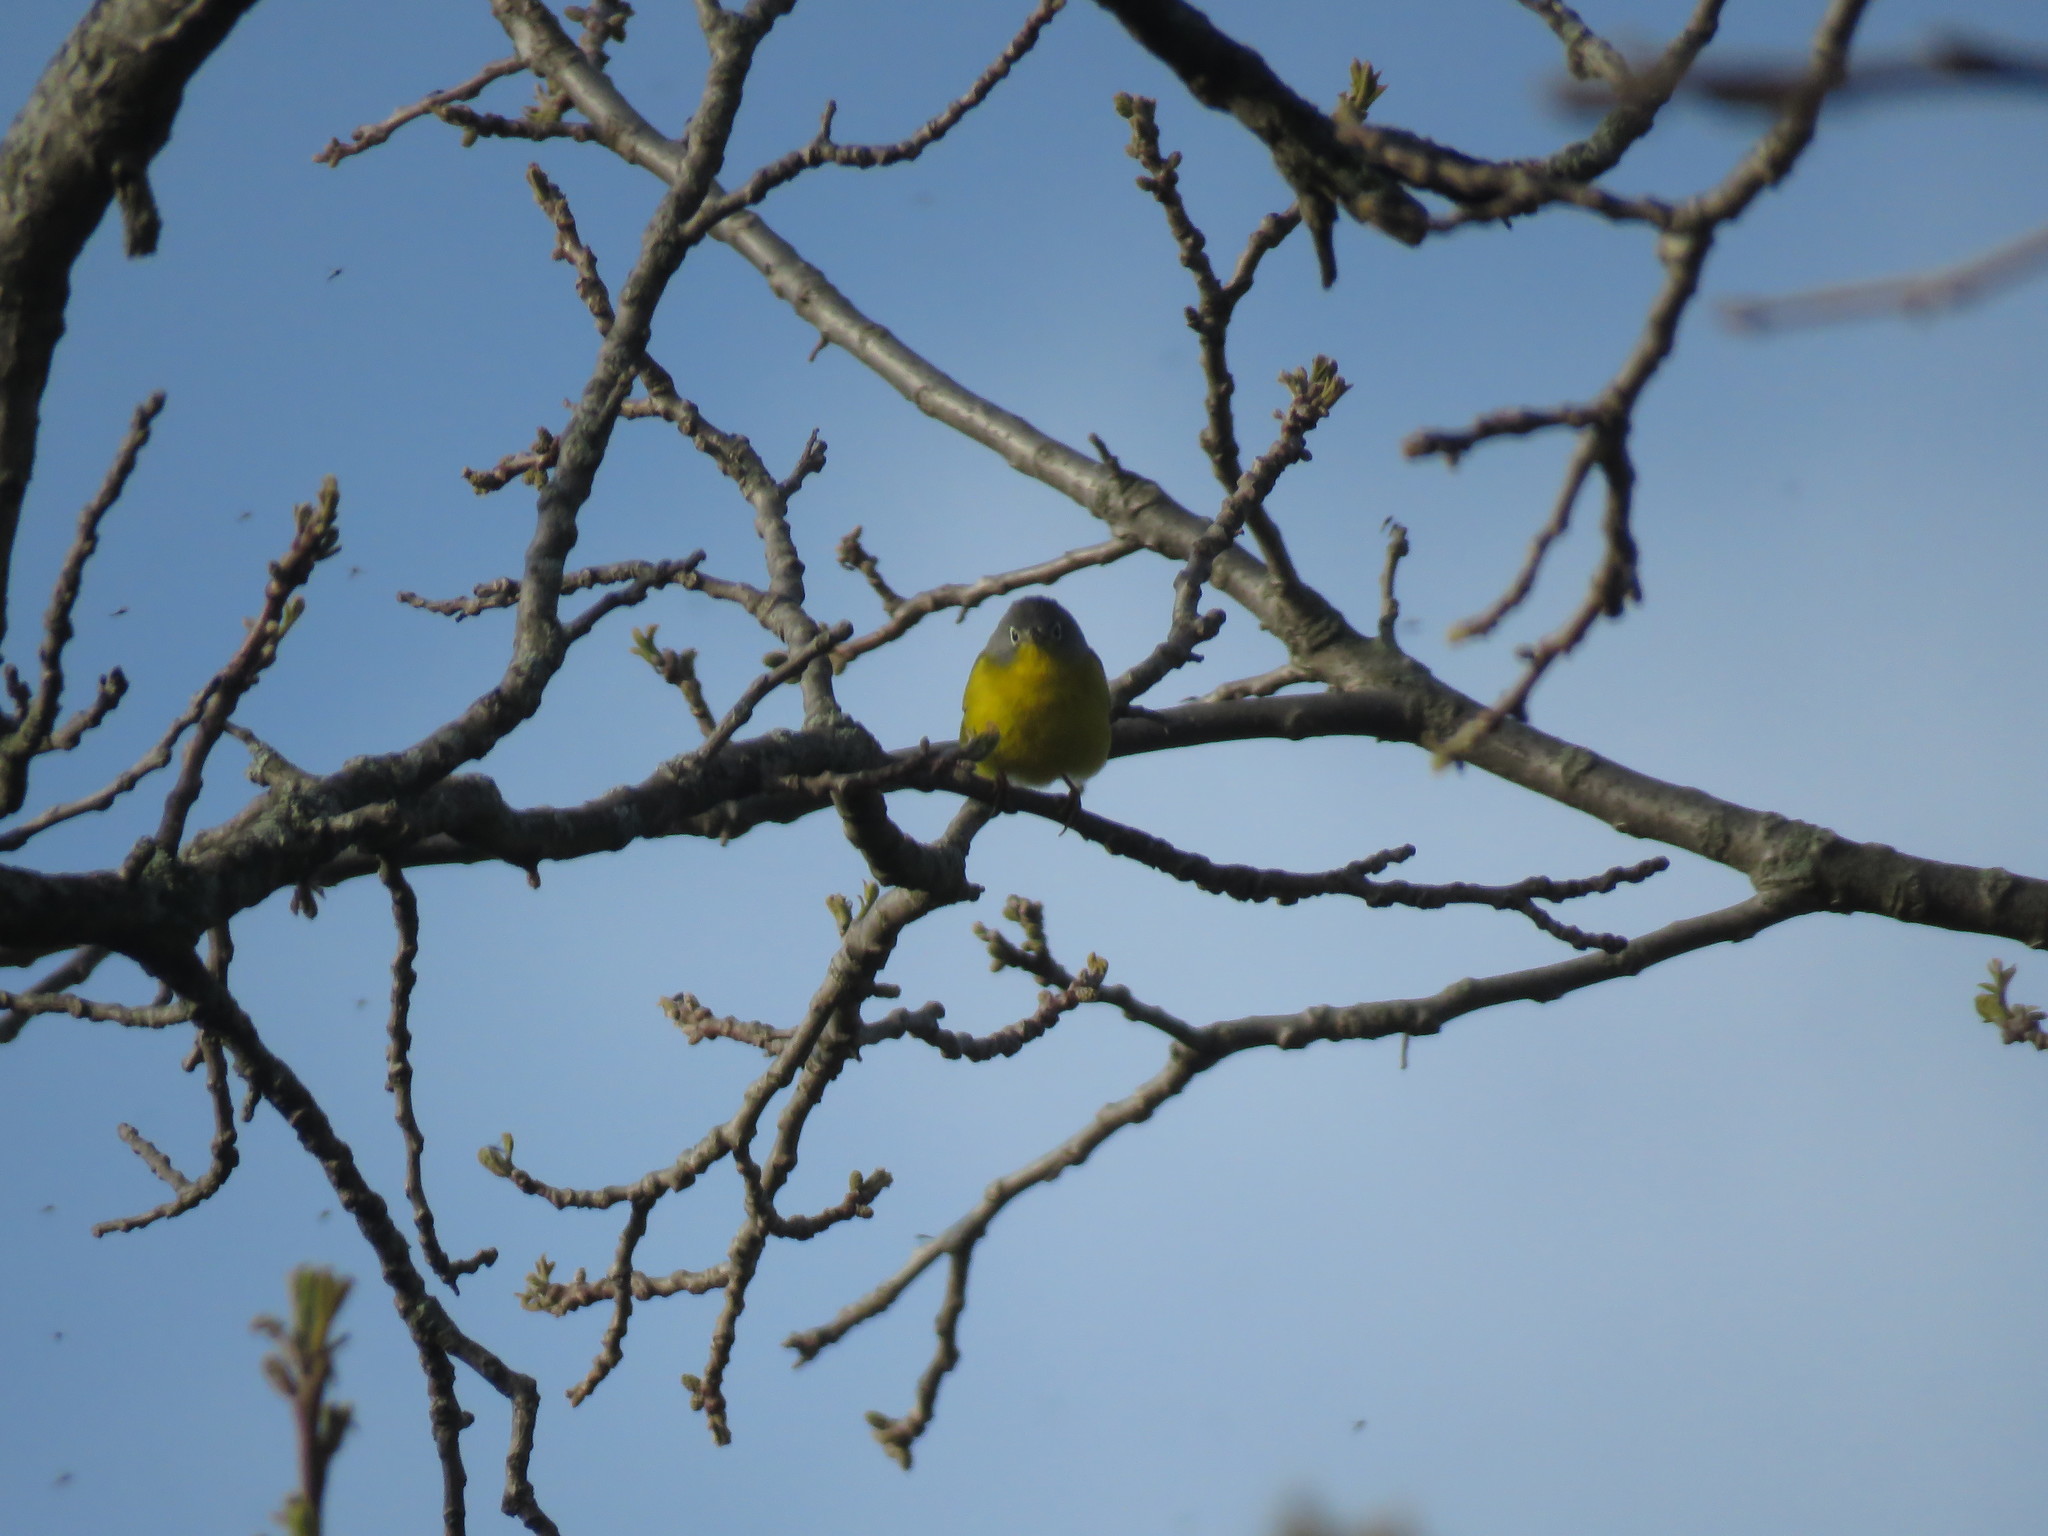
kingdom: Animalia
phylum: Chordata
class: Aves
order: Passeriformes
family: Parulidae
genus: Leiothlypis
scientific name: Leiothlypis ruficapilla
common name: Nashville warbler
